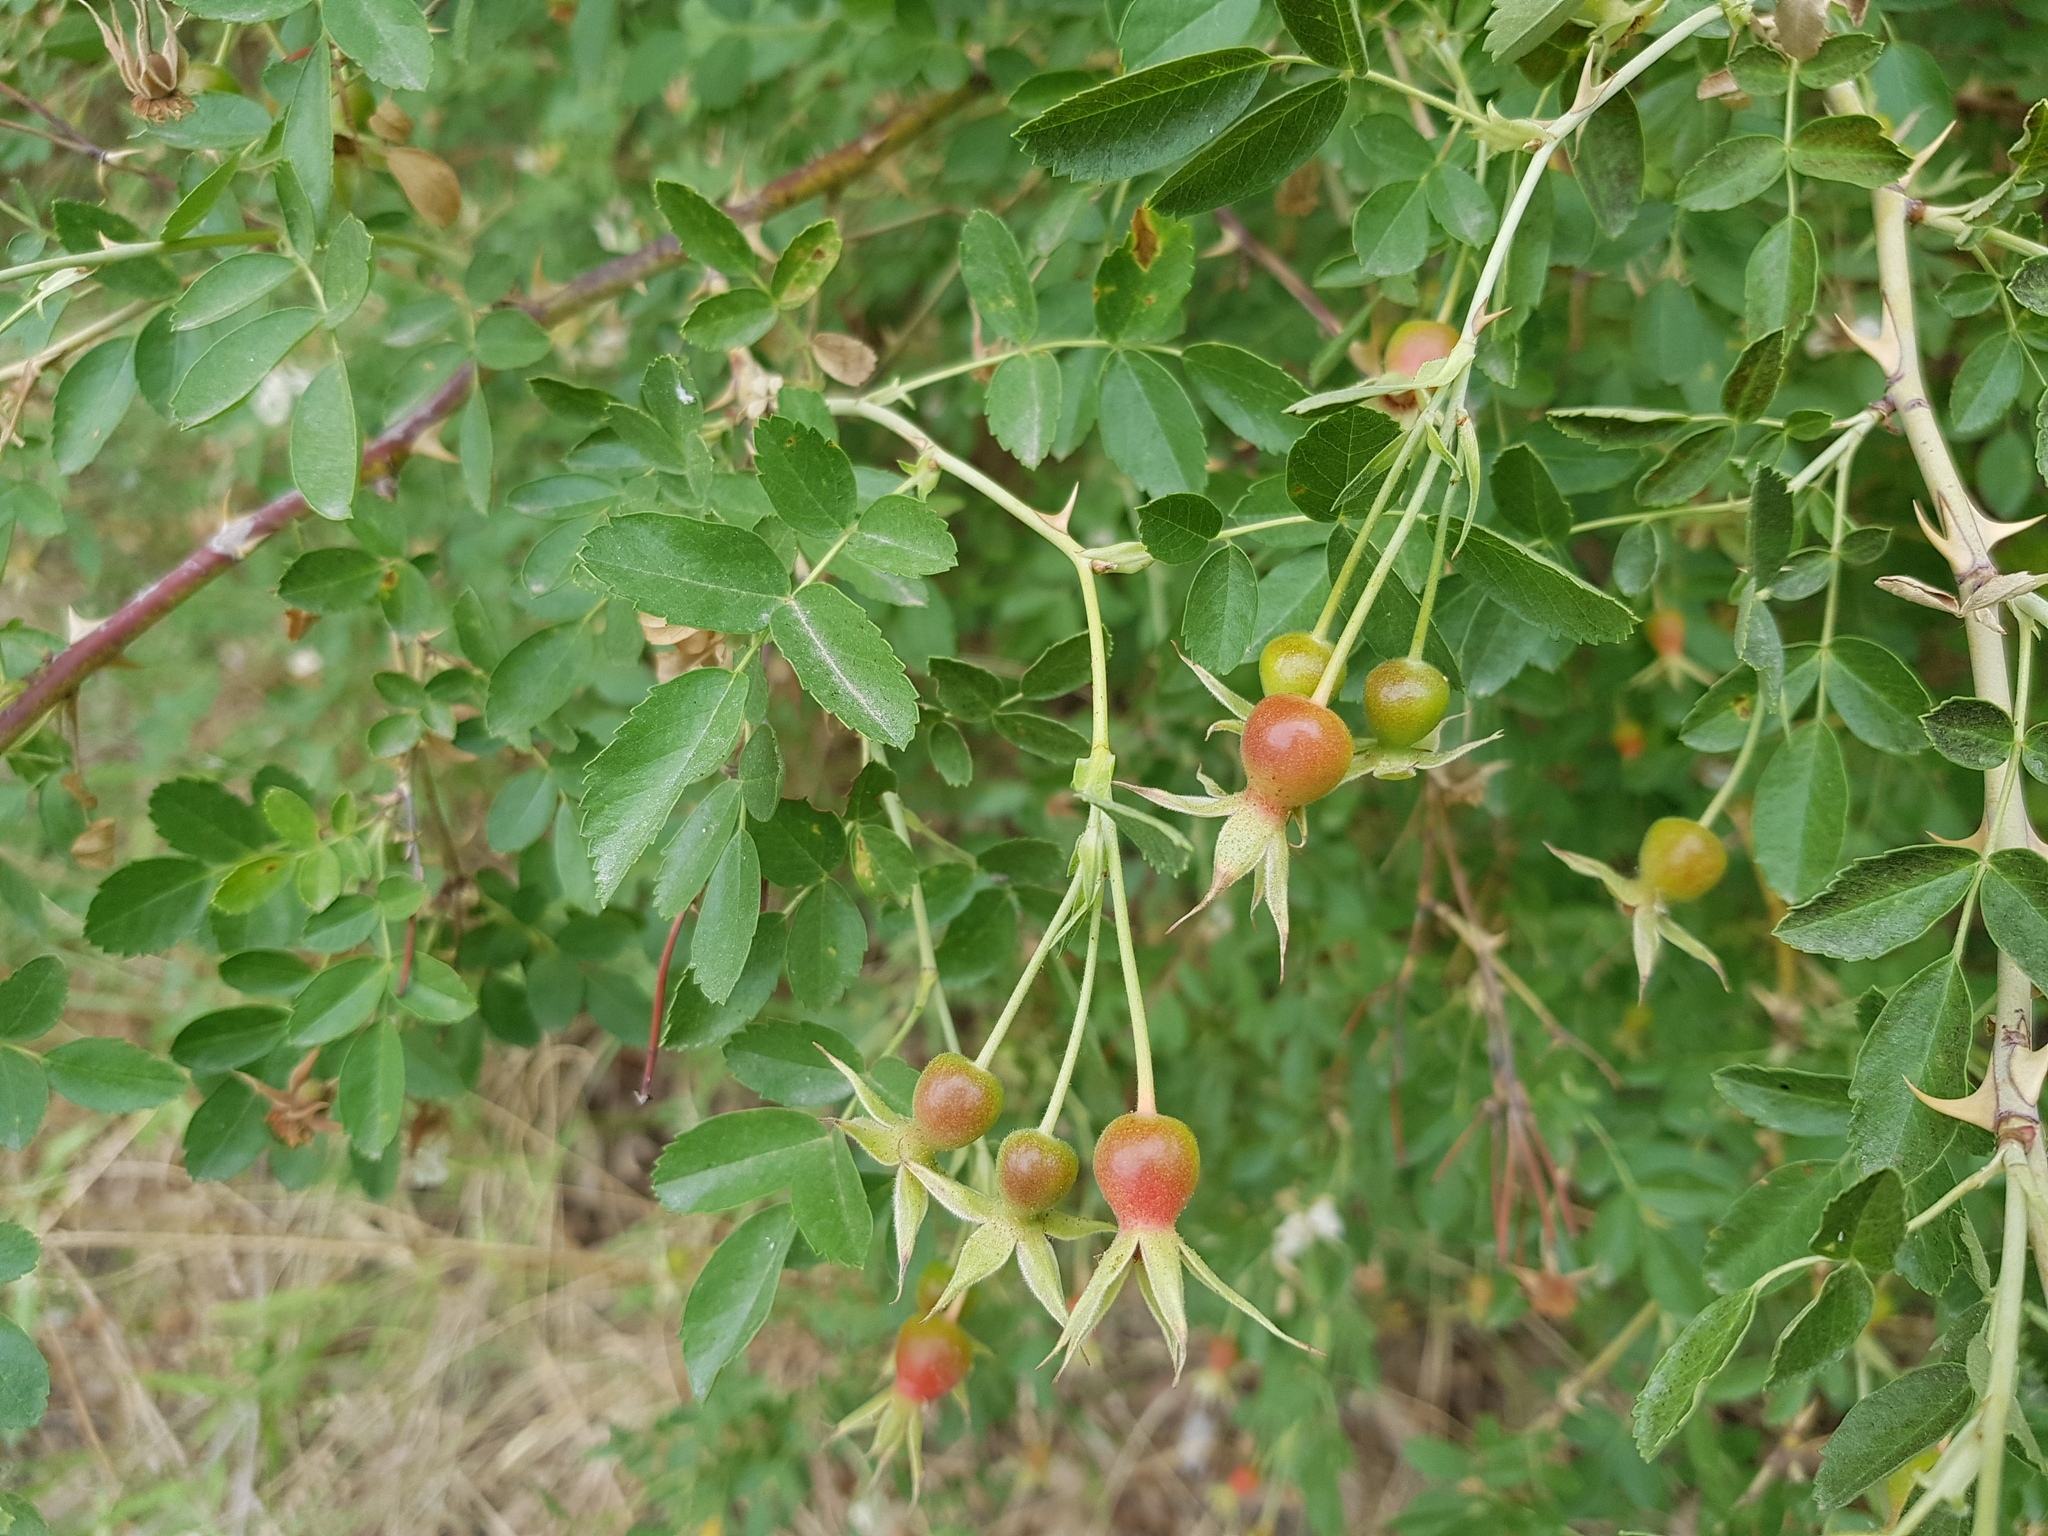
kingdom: Plantae
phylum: Tracheophyta
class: Magnoliopsida
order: Rosales
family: Rosaceae
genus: Rosa
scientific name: Rosa spinosissima
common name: Burnet rose
